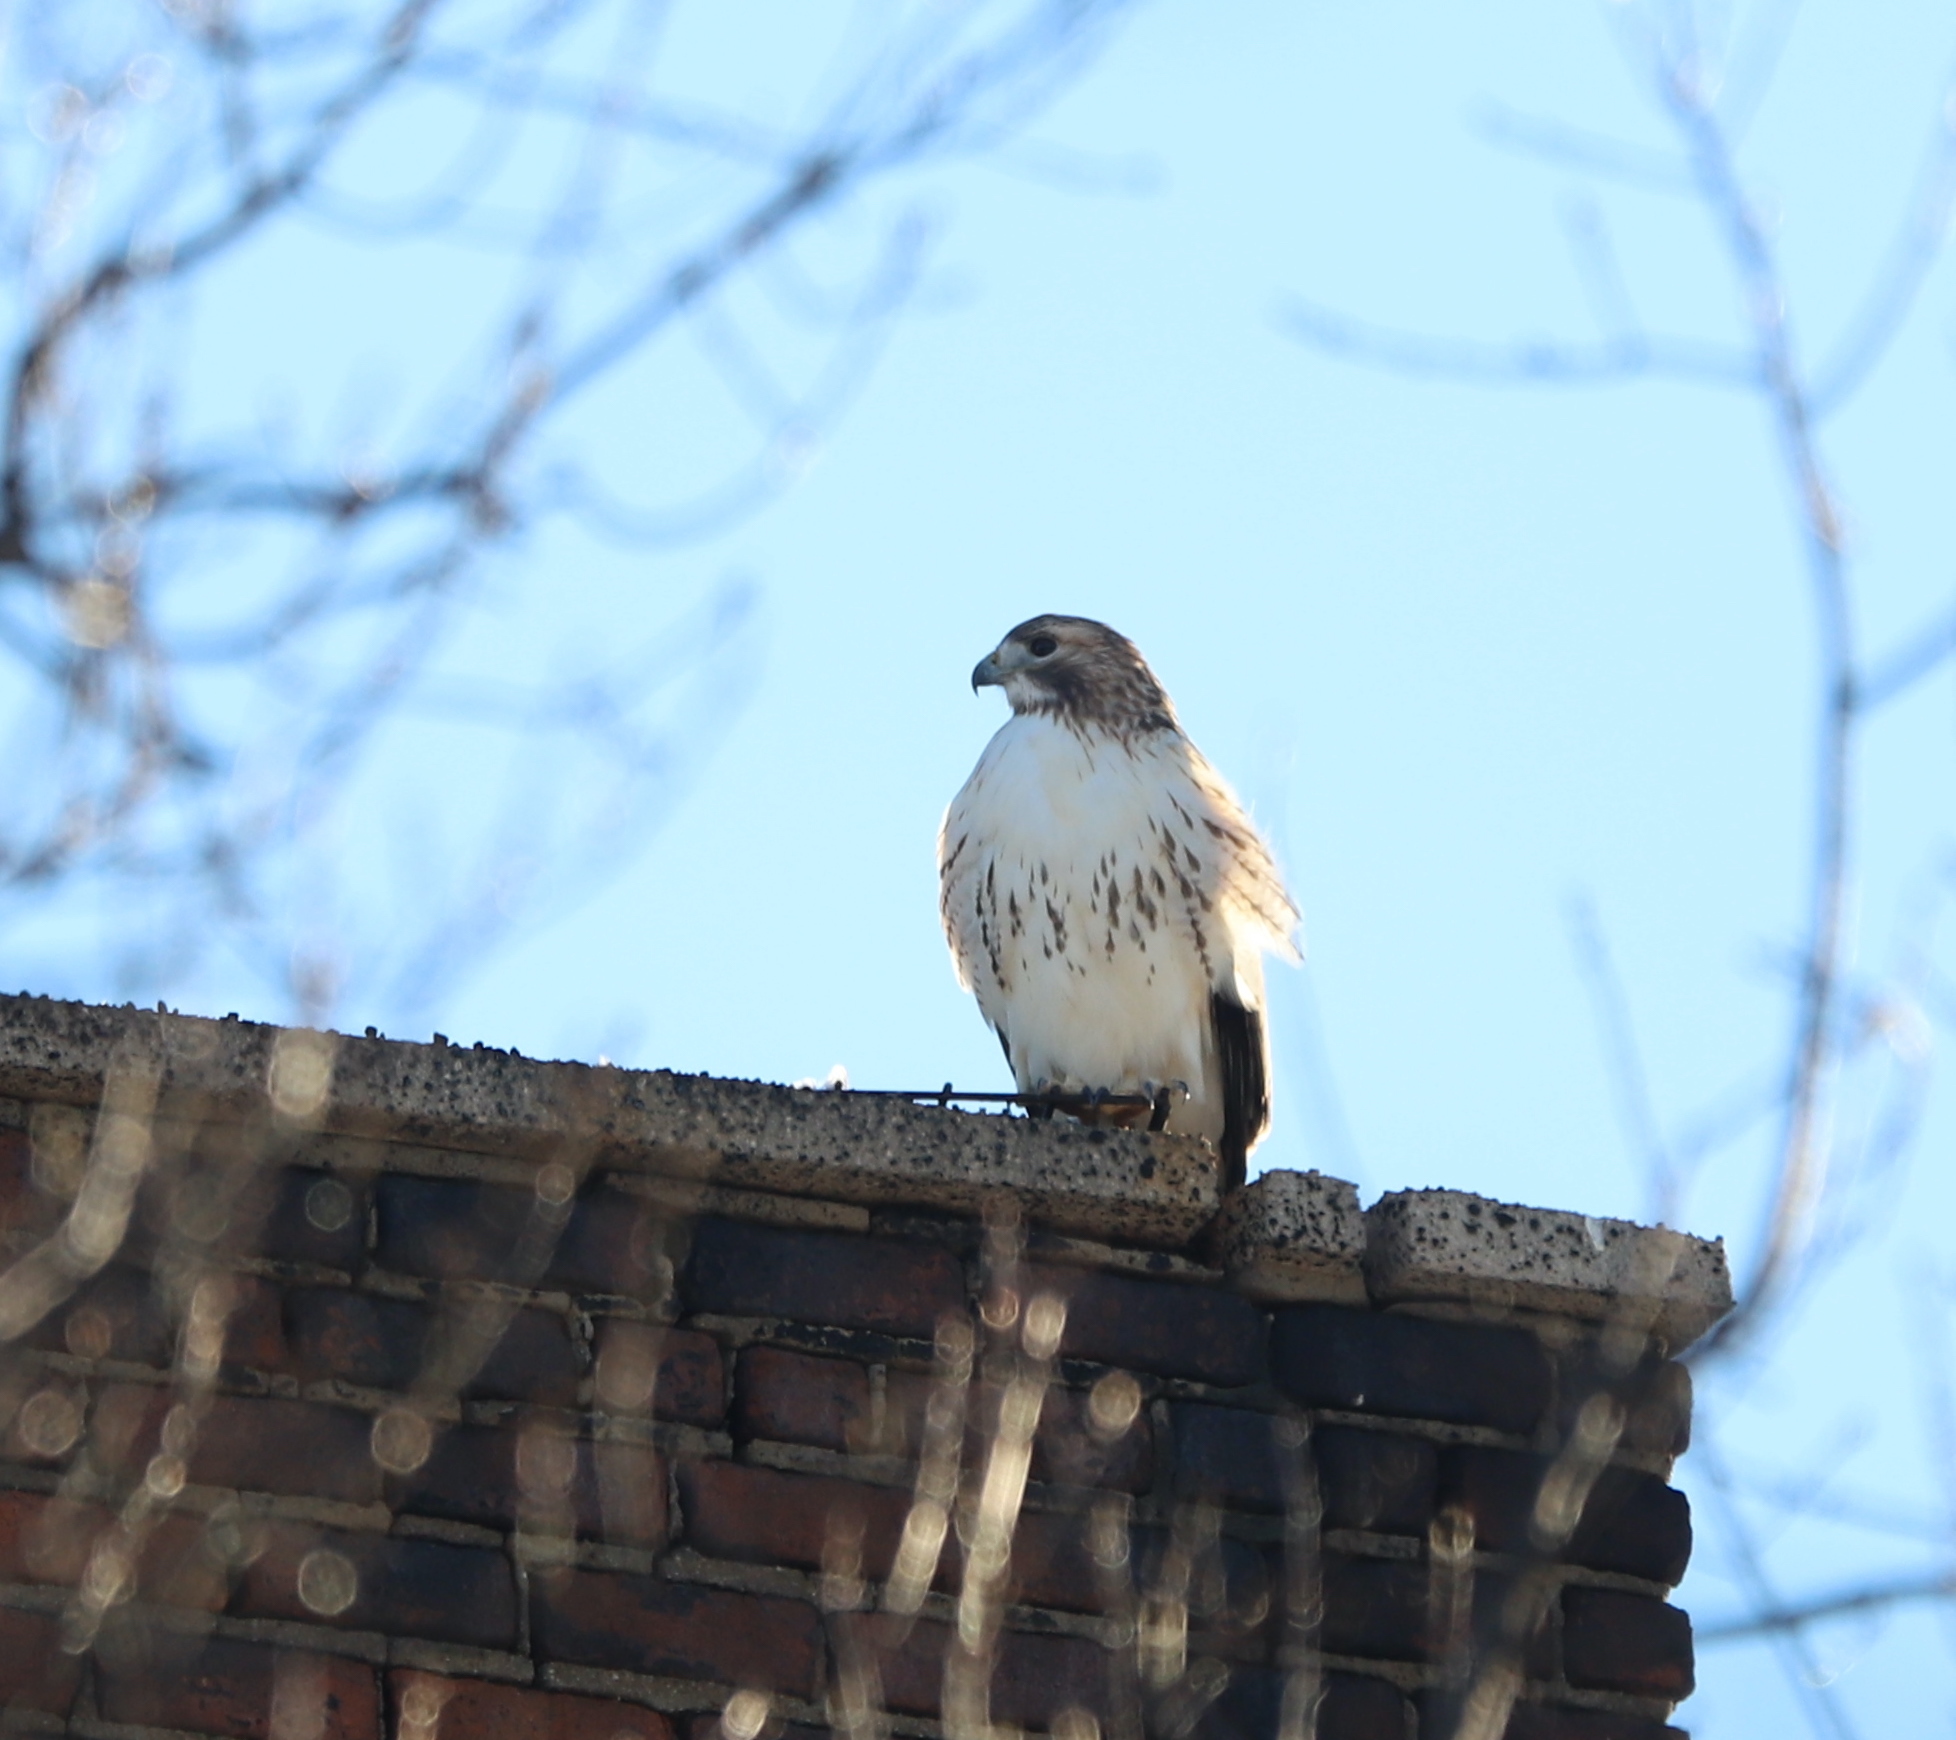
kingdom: Animalia
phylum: Chordata
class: Aves
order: Accipitriformes
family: Accipitridae
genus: Buteo
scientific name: Buteo jamaicensis
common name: Red-tailed hawk
